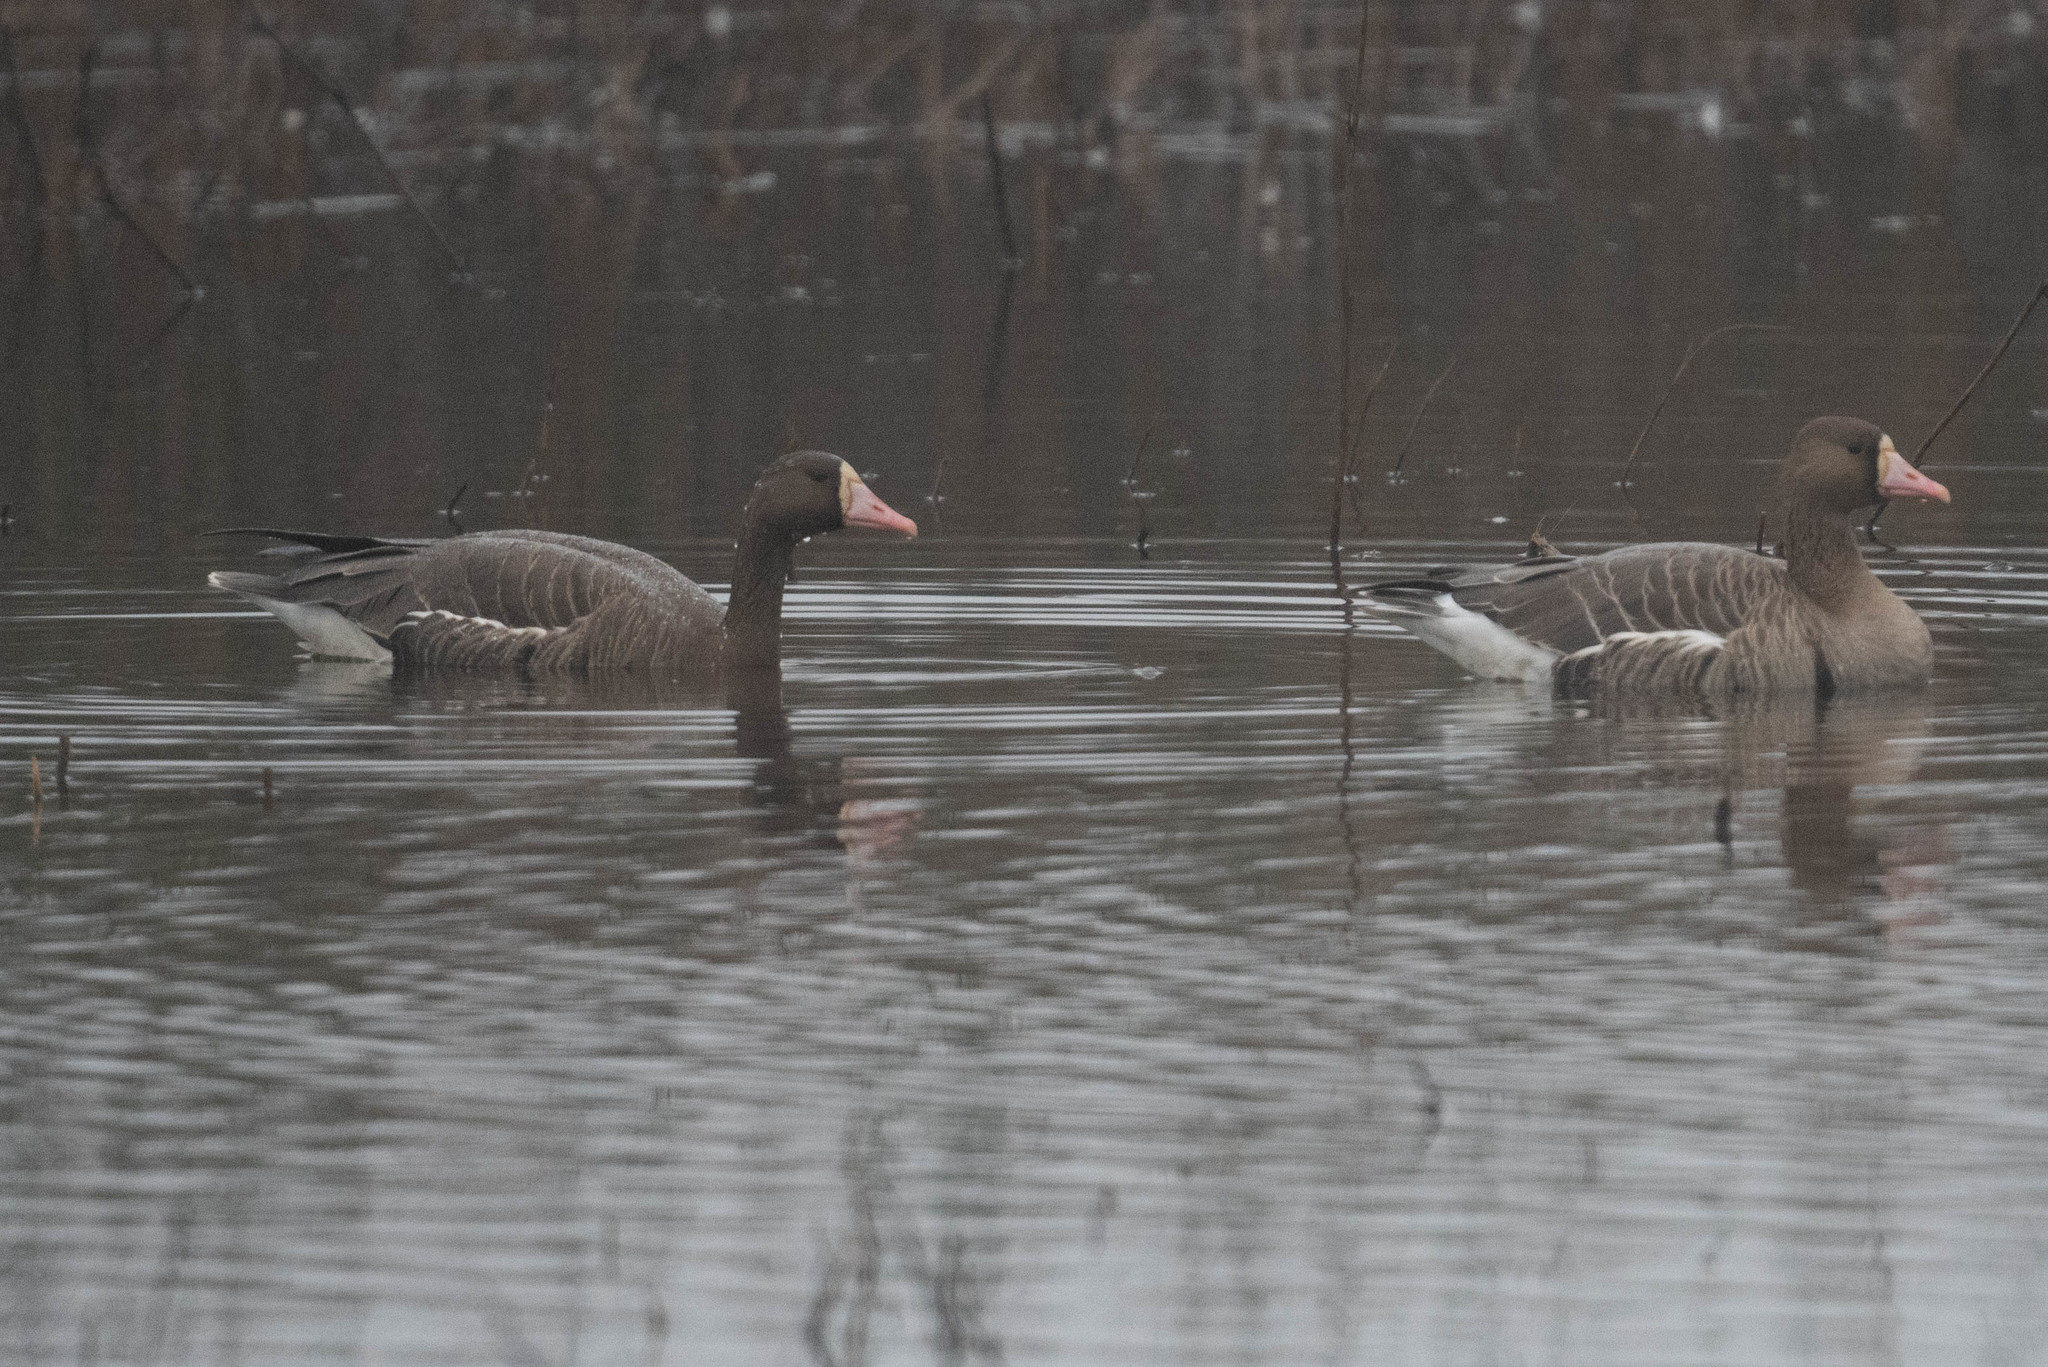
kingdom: Animalia
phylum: Chordata
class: Aves
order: Anseriformes
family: Anatidae
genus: Anser
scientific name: Anser albifrons
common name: Greater white-fronted goose
